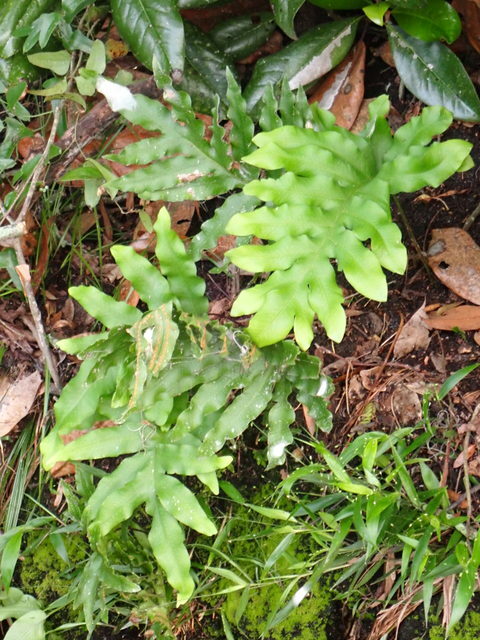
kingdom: Plantae
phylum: Tracheophyta
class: Polypodiopsida
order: Polypodiales
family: Polypodiaceae
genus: Phlebodium
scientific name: Phlebodium aureum
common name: Gold-foot fern
